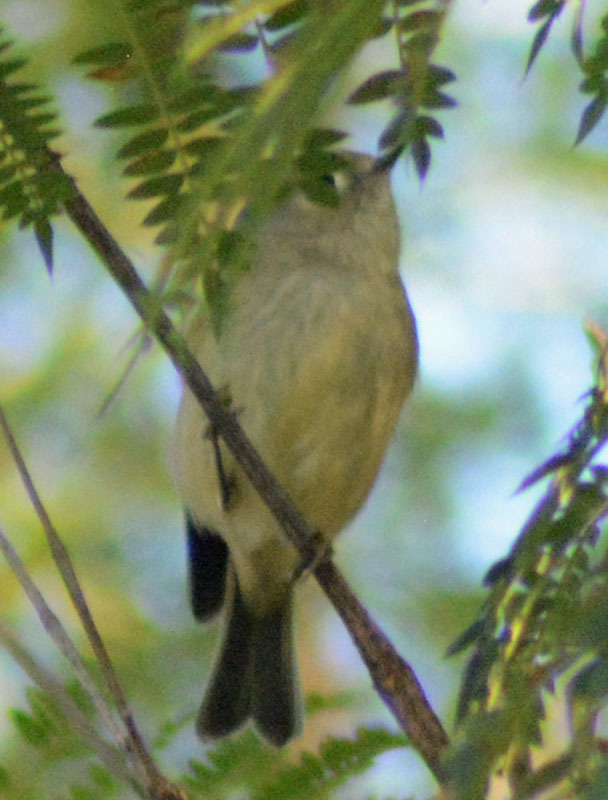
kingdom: Animalia
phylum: Chordata
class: Aves
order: Passeriformes
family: Regulidae
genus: Regulus
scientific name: Regulus calendula
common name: Ruby-crowned kinglet
